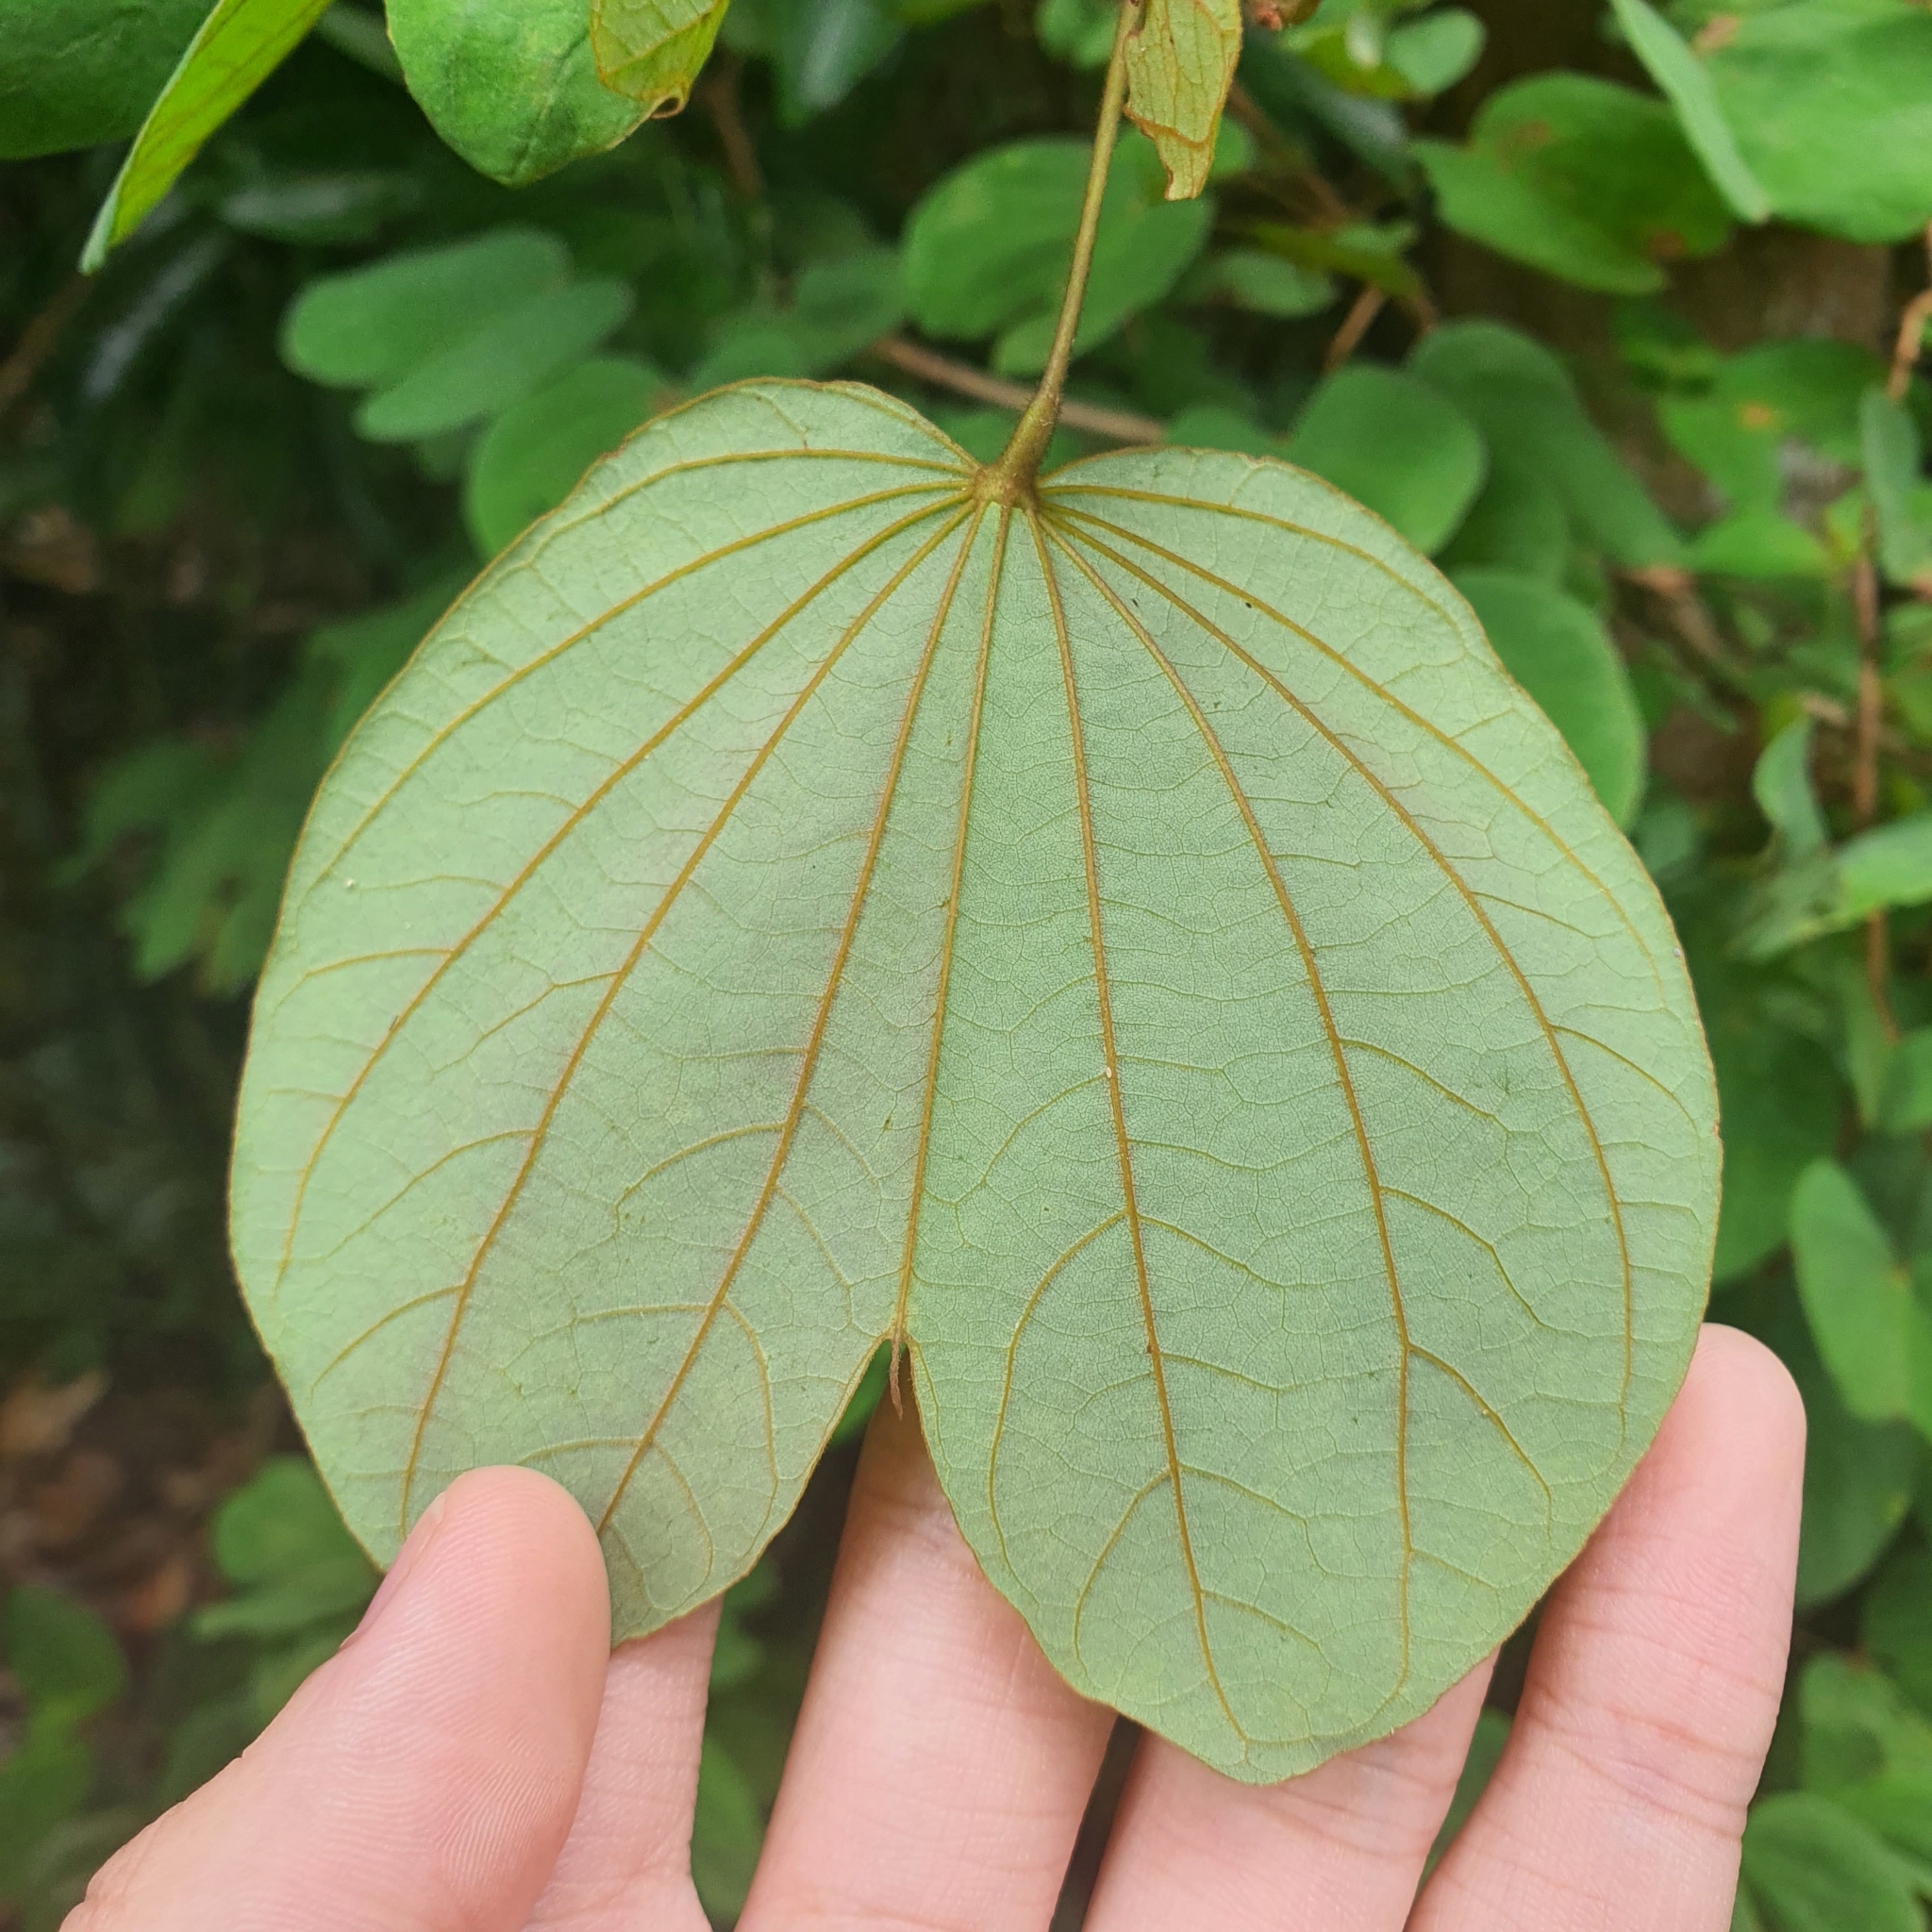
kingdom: Plantae
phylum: Tracheophyta
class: Magnoliopsida
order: Fabales
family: Fabaceae
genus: Phanera
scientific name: Phanera semibifida
